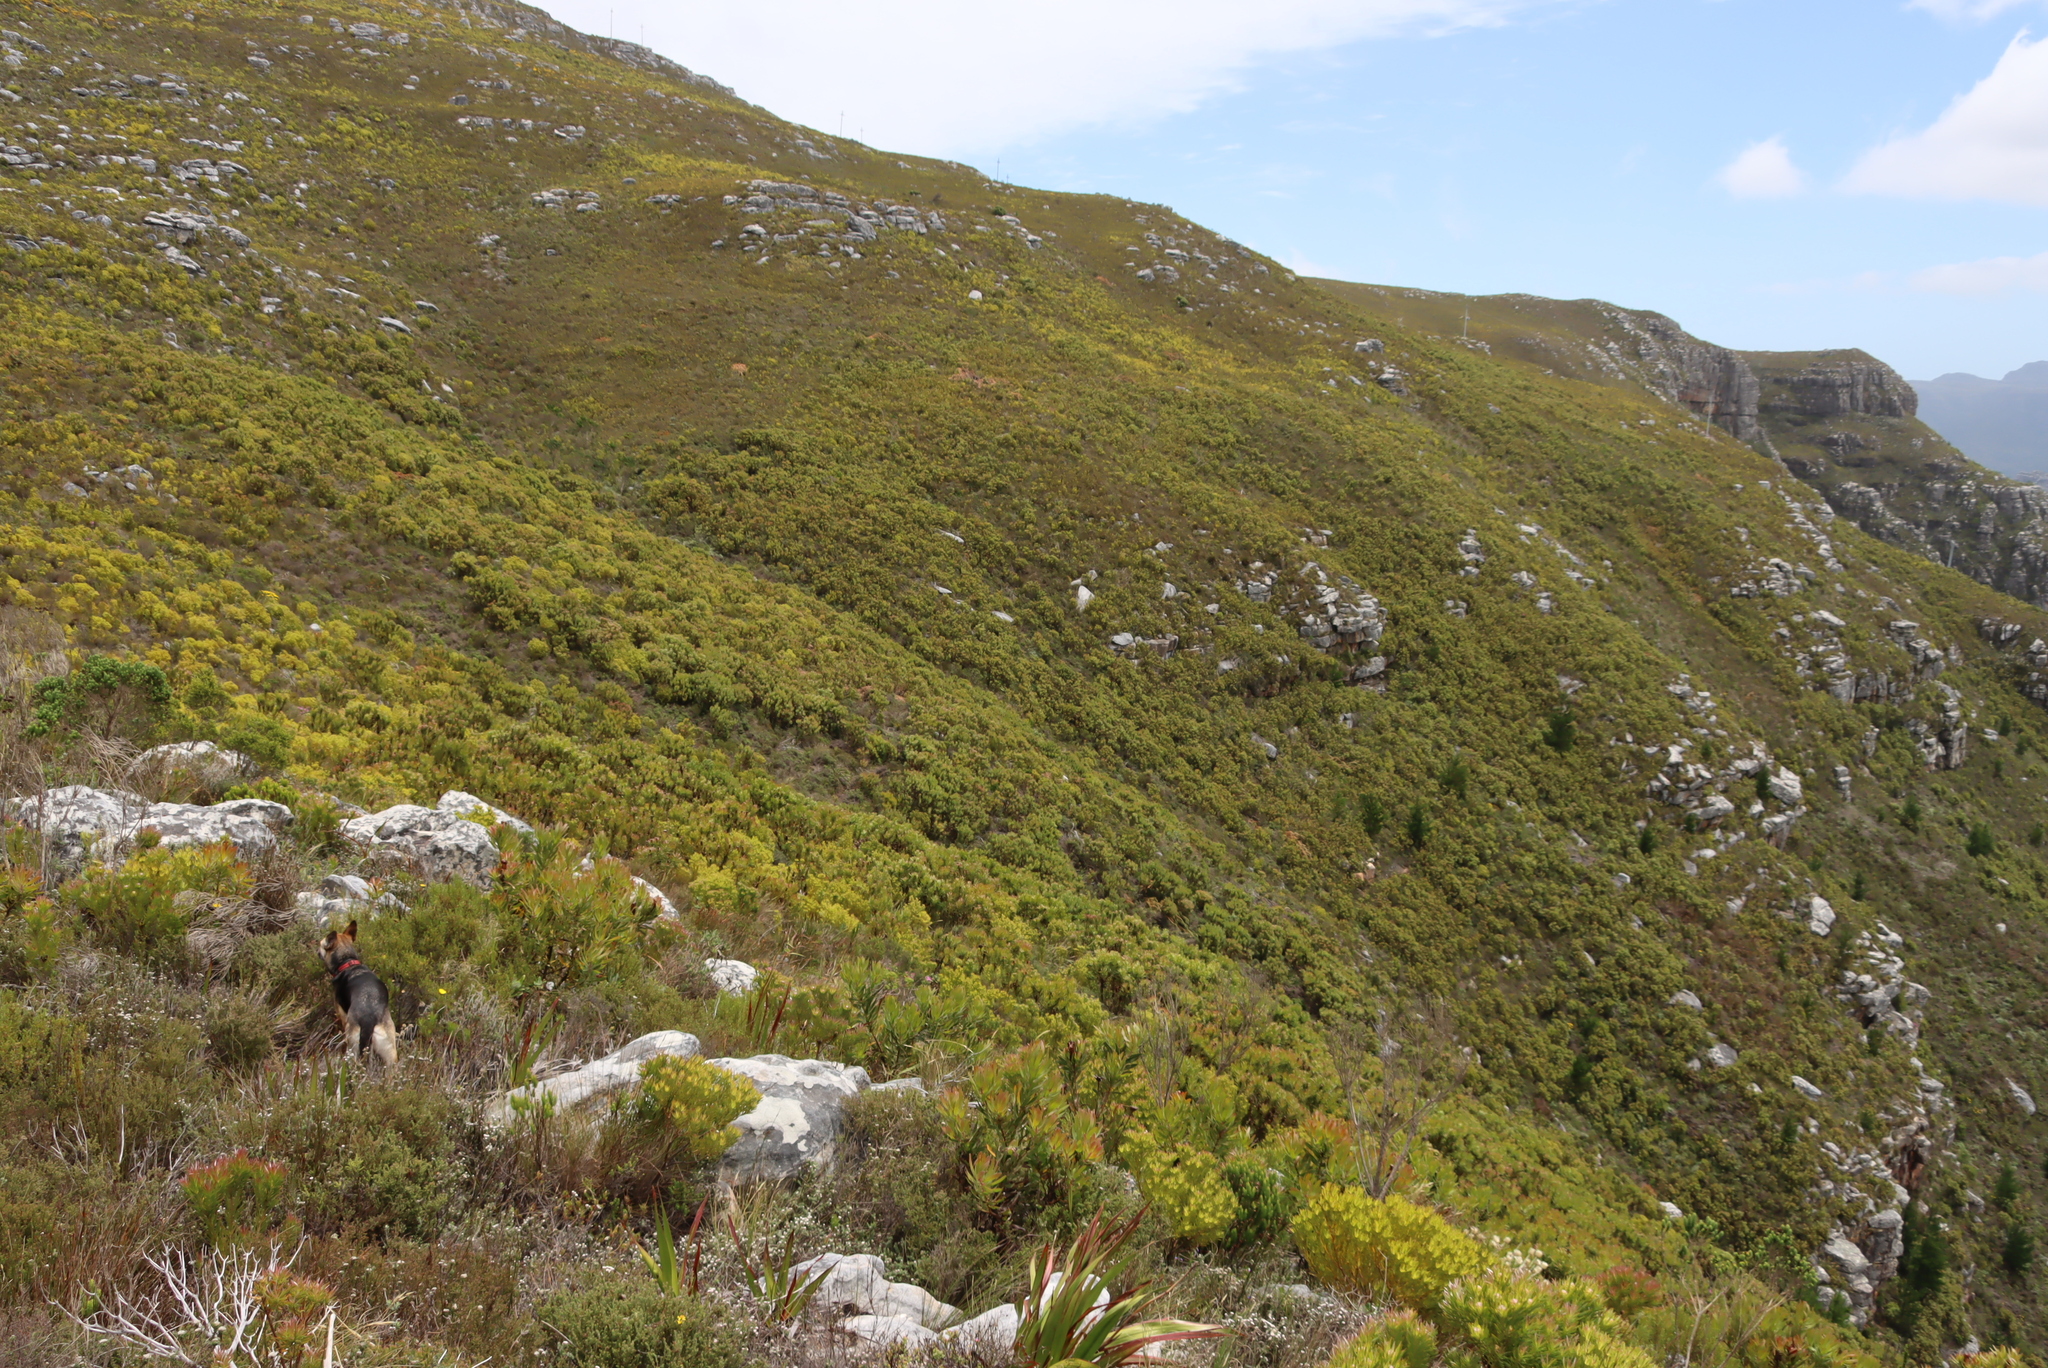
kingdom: Plantae
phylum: Tracheophyta
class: Magnoliopsida
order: Proteales
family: Proteaceae
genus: Protea
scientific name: Protea lepidocarpodendron
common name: Black-bearded protea
